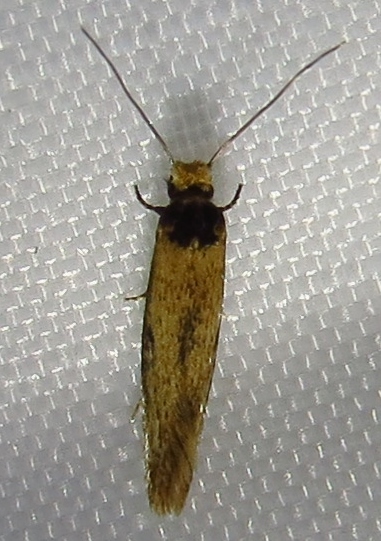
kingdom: Animalia
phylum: Arthropoda
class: Insecta
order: Lepidoptera
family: Tineidae
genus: Tinea
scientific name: Tinea apicimaculella
